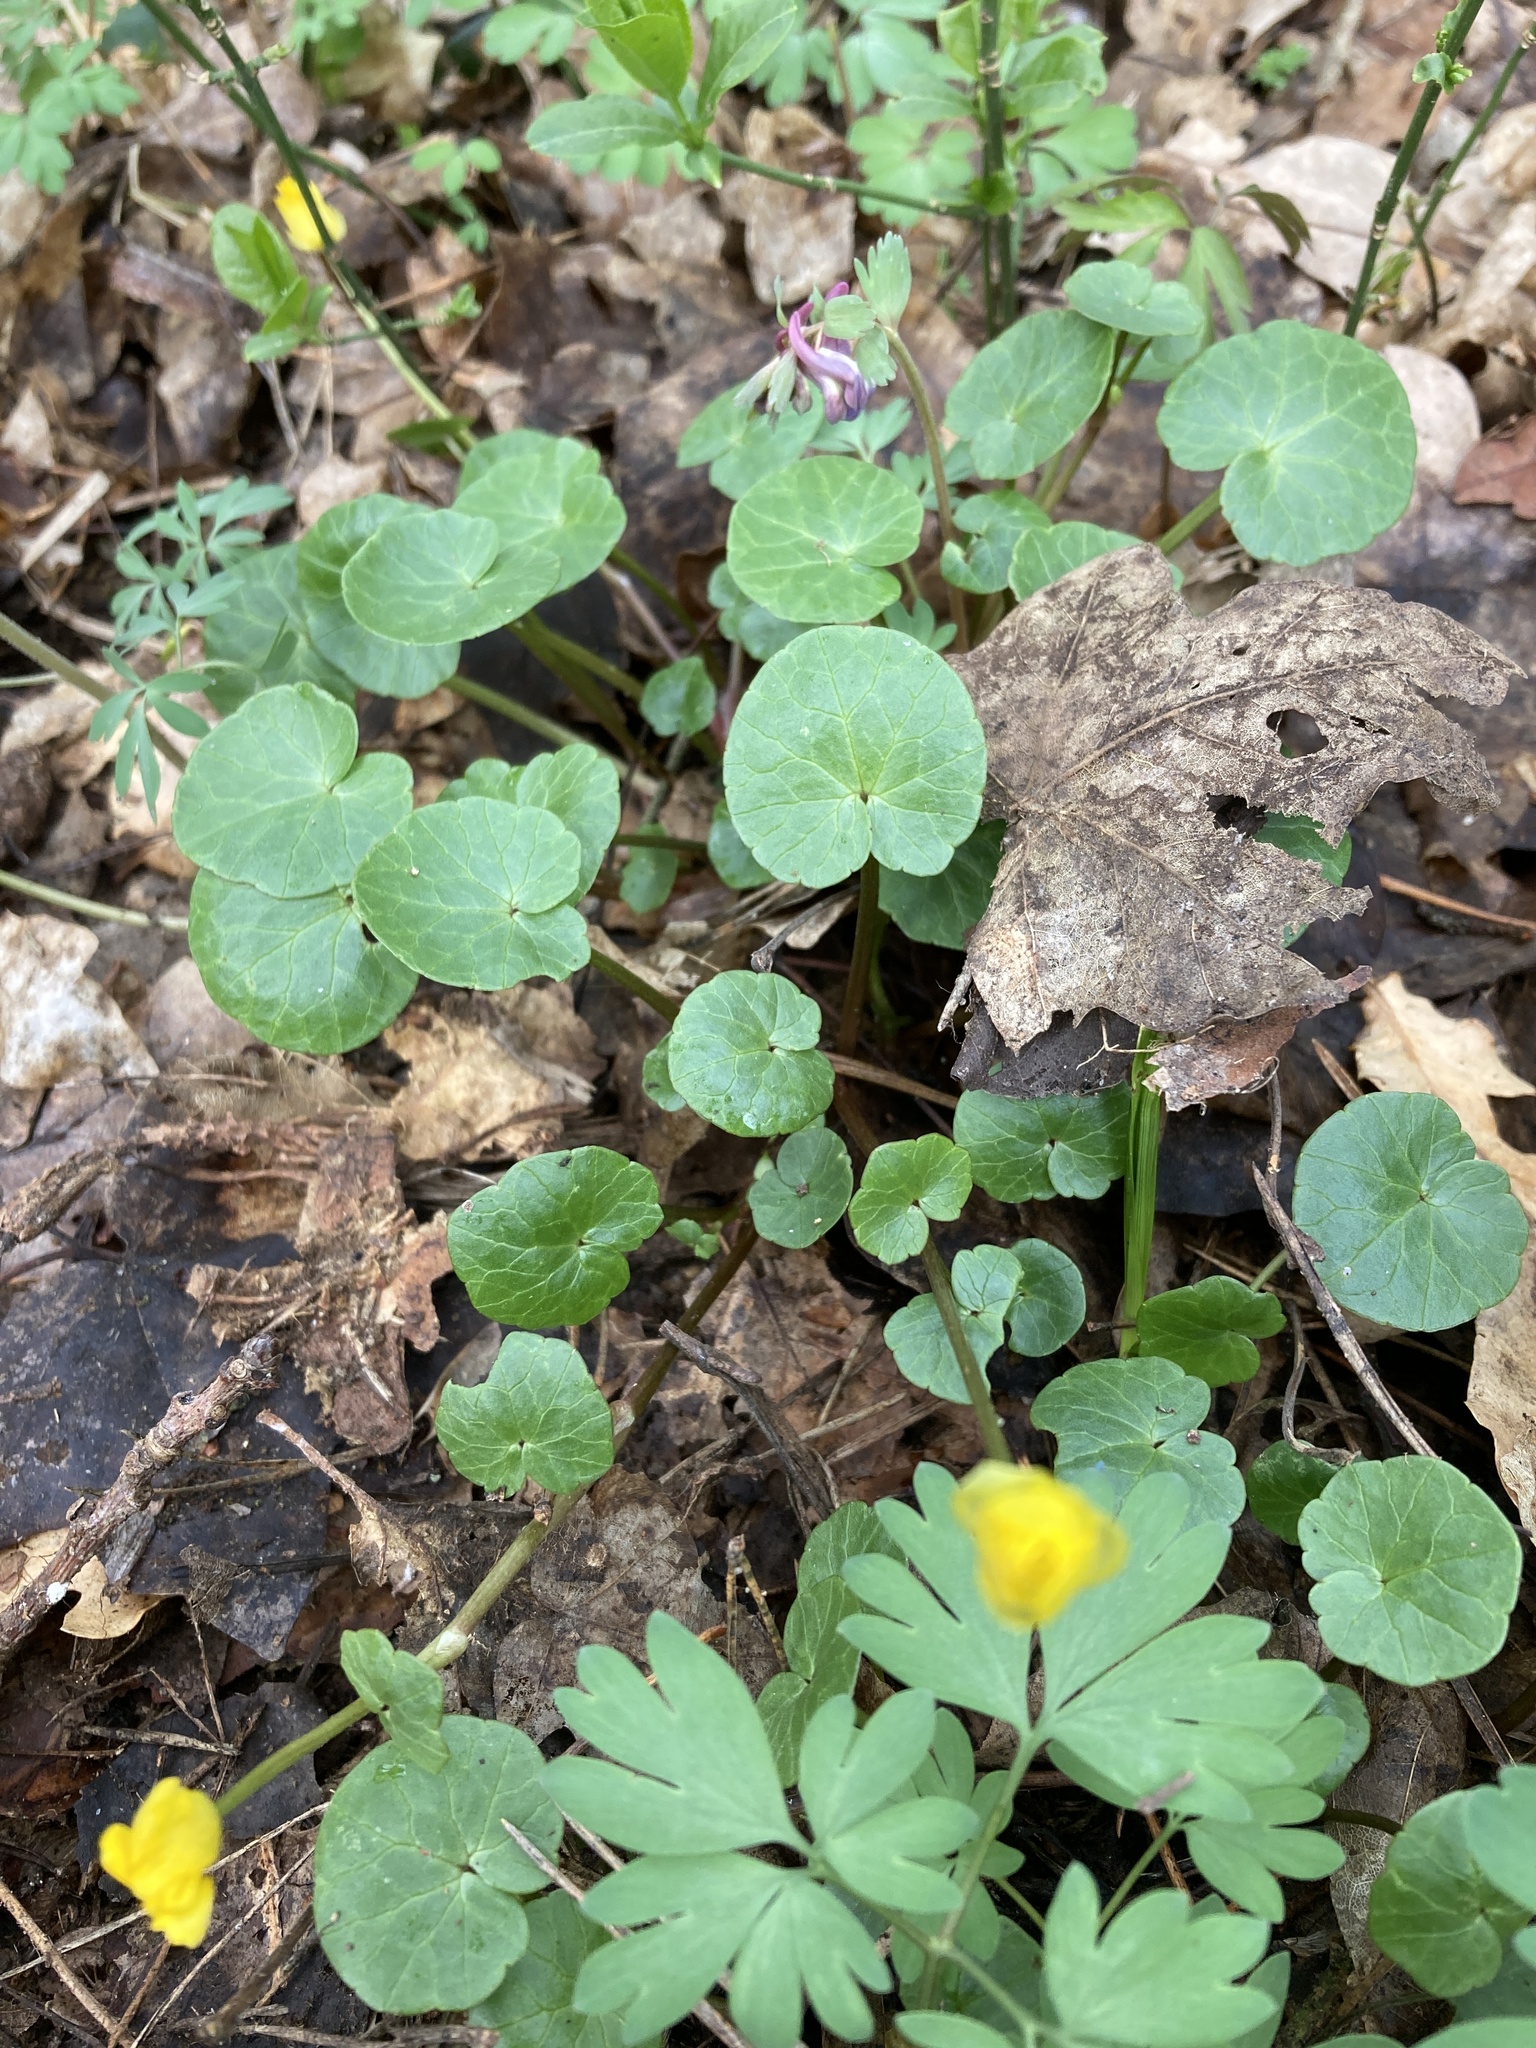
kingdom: Plantae
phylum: Tracheophyta
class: Magnoliopsida
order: Ranunculales
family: Ranunculaceae
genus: Ficaria
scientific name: Ficaria verna
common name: Lesser celandine
